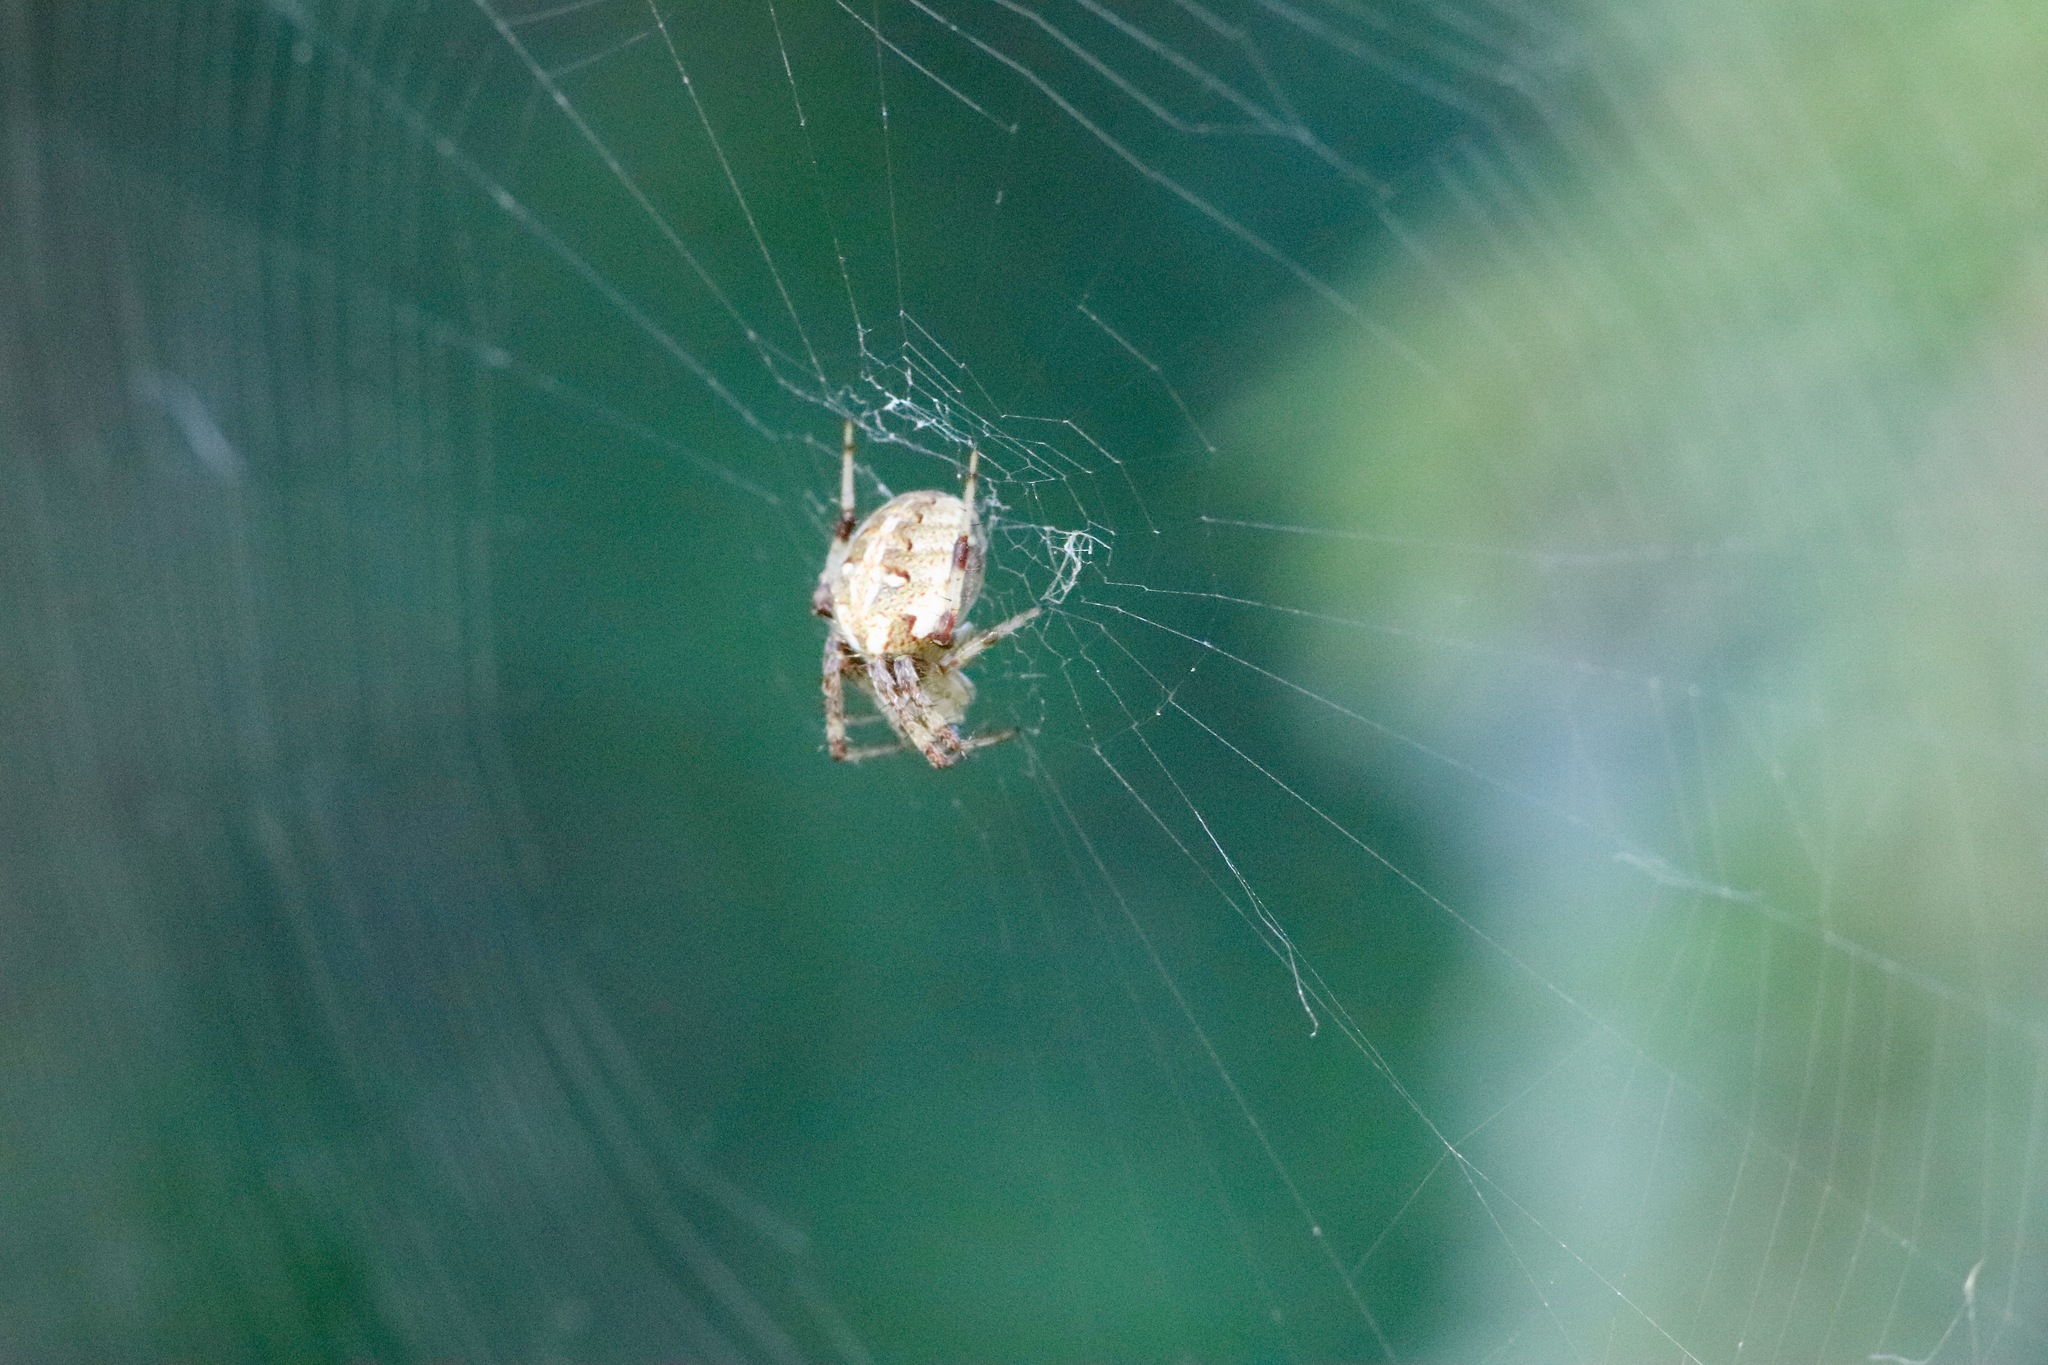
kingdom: Animalia
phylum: Arthropoda
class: Arachnida
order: Araneae
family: Araneidae
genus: Neoscona
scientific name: Neoscona arabesca
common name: Orb weavers
